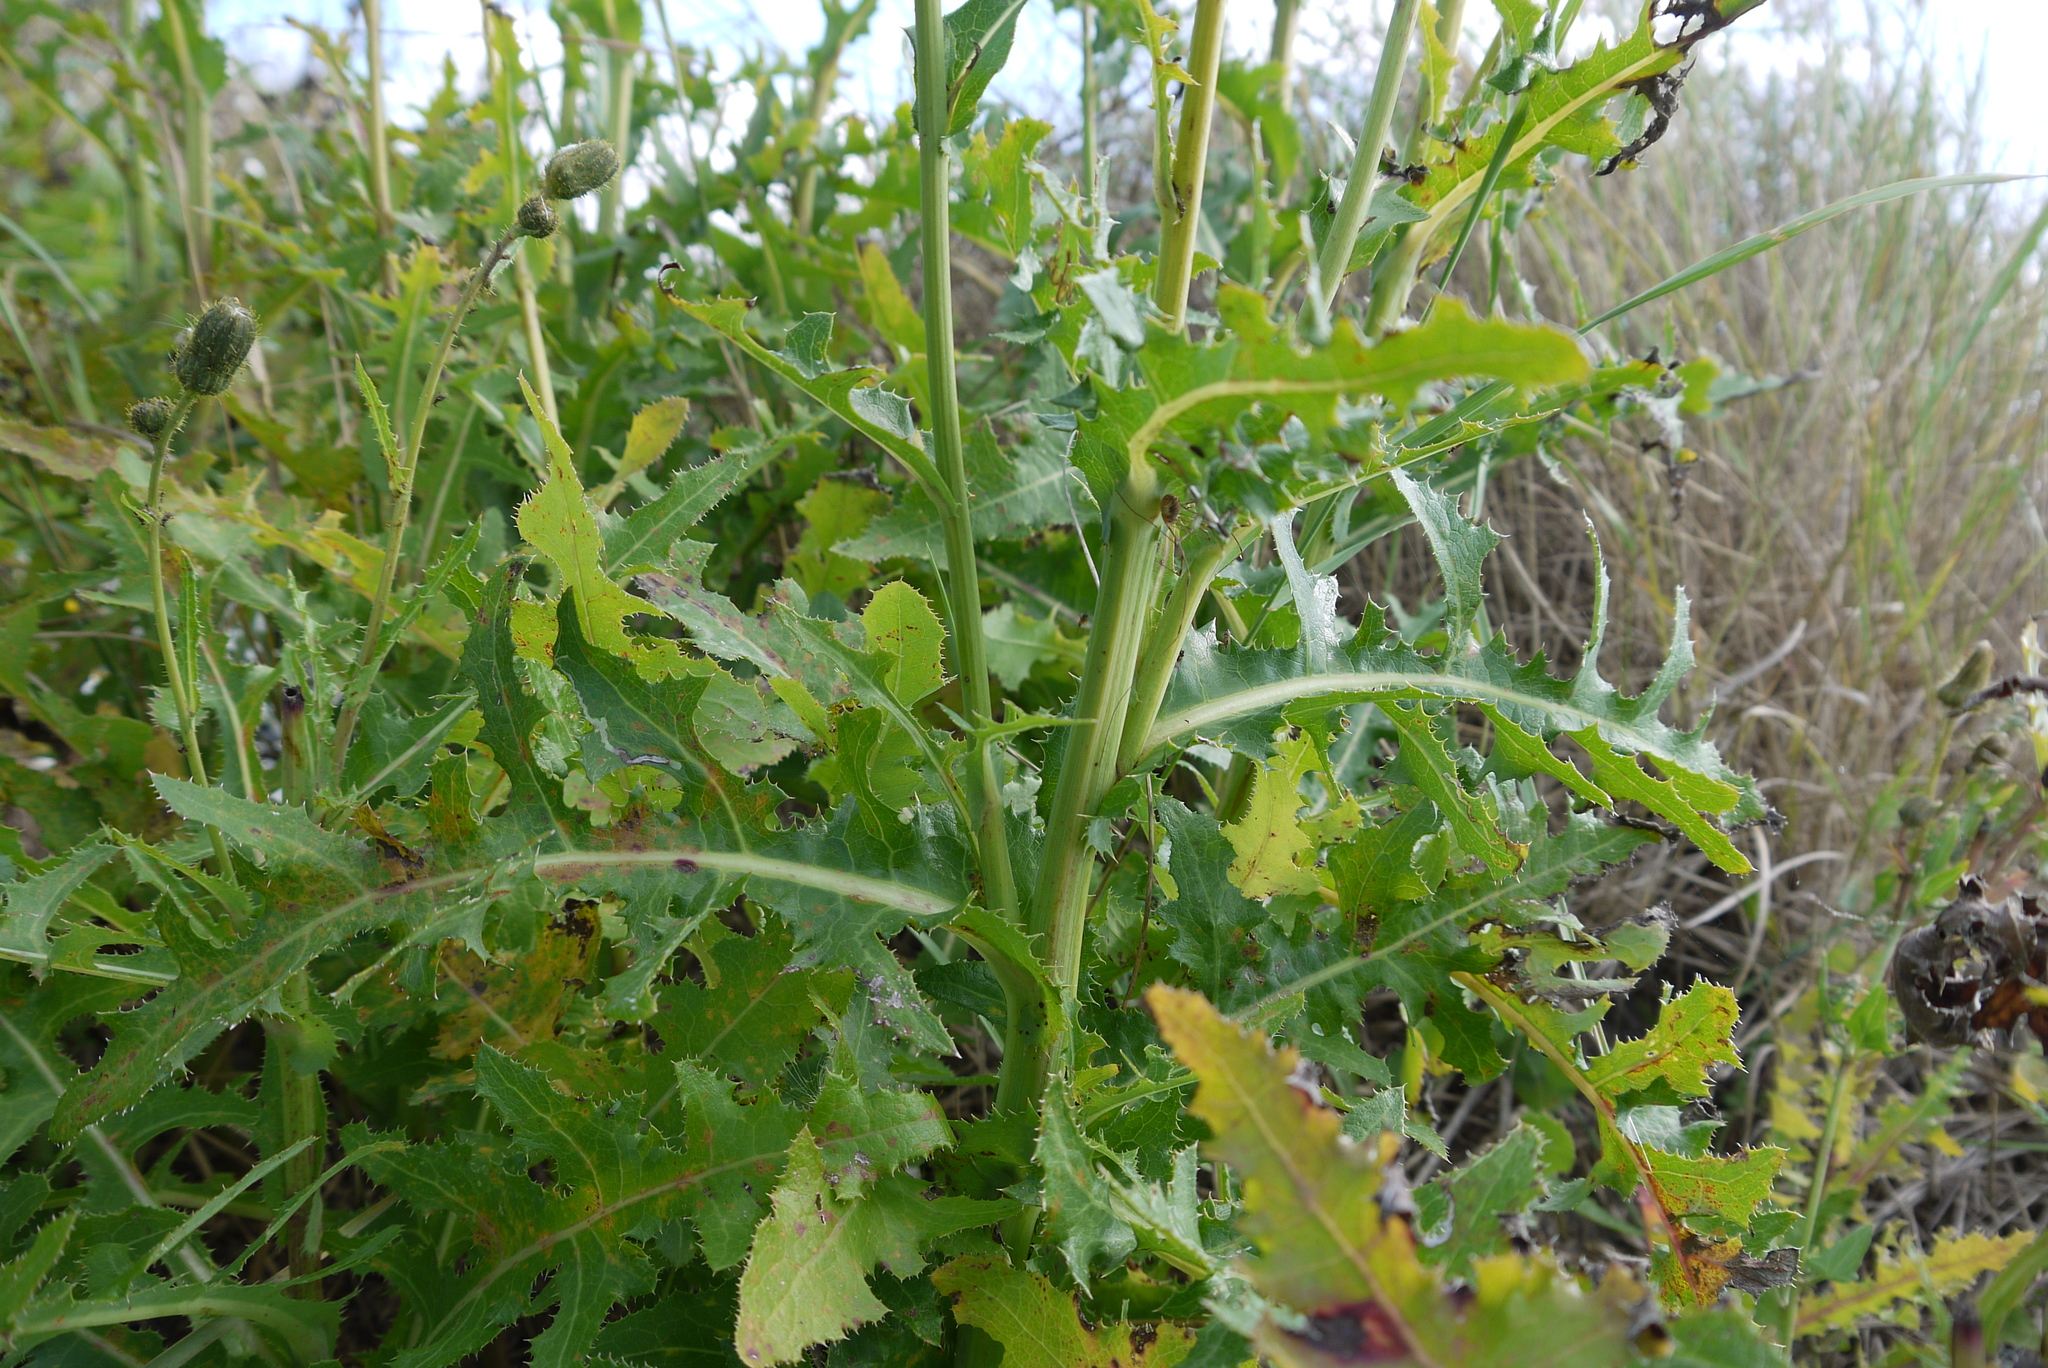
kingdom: Plantae
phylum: Tracheophyta
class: Magnoliopsida
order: Asterales
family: Asteraceae
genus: Sonchus
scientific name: Sonchus arvensis
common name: Perennial sow-thistle
